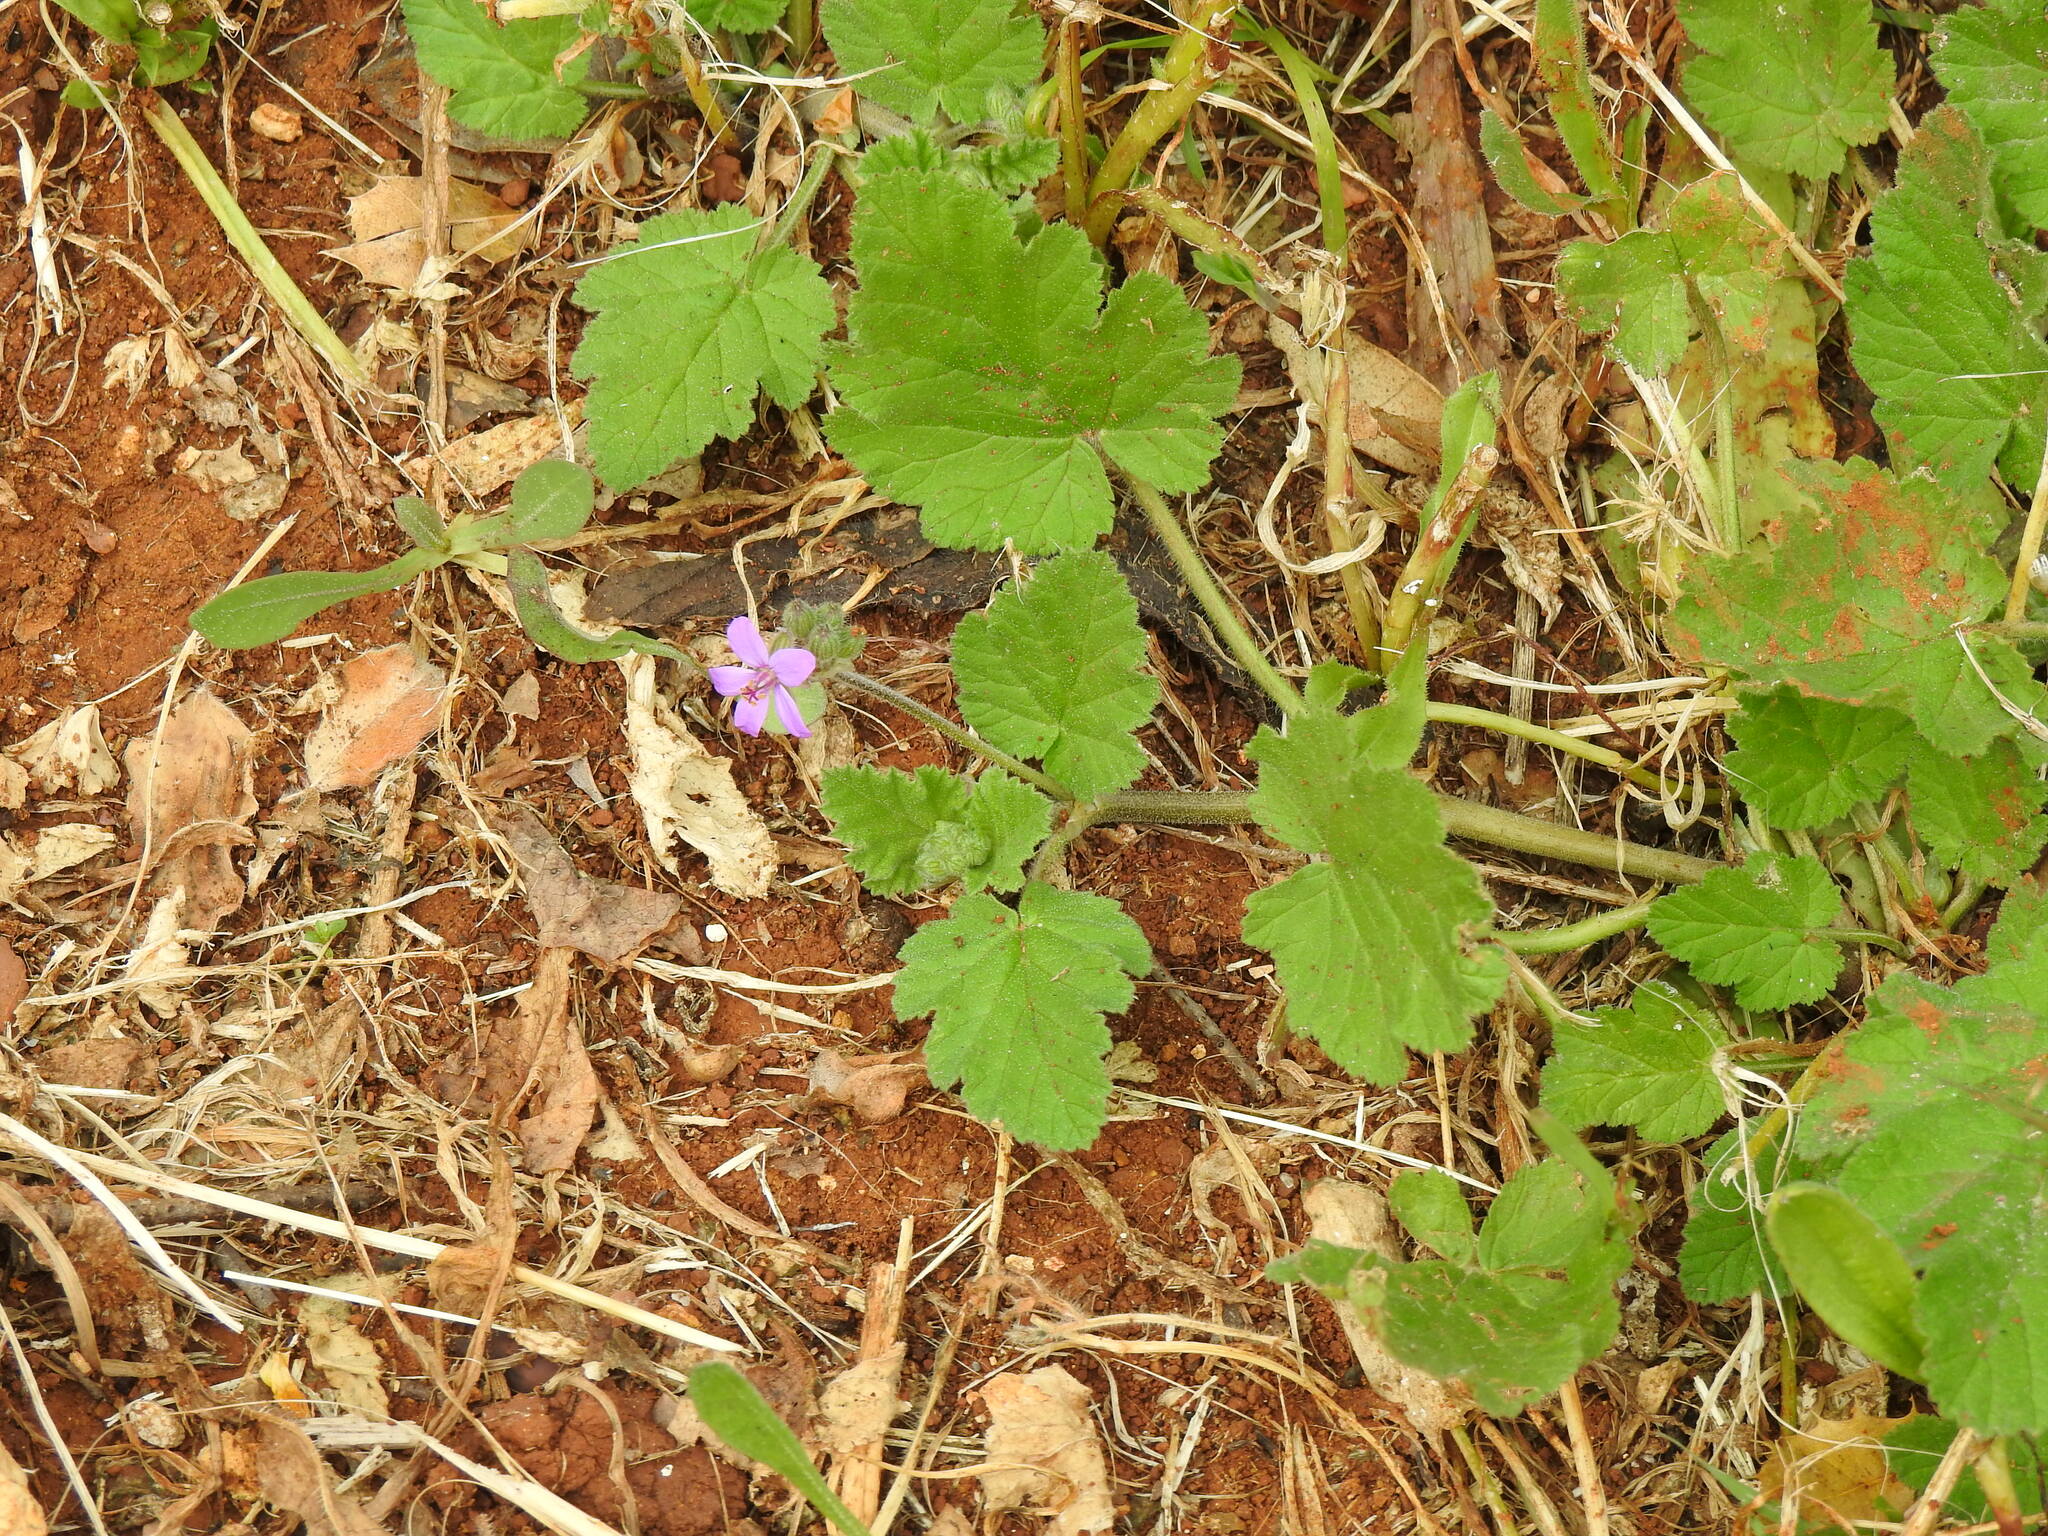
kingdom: Plantae
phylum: Tracheophyta
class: Magnoliopsida
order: Geraniales
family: Geraniaceae
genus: Erodium
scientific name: Erodium malacoides
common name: Soft stork's-bill
